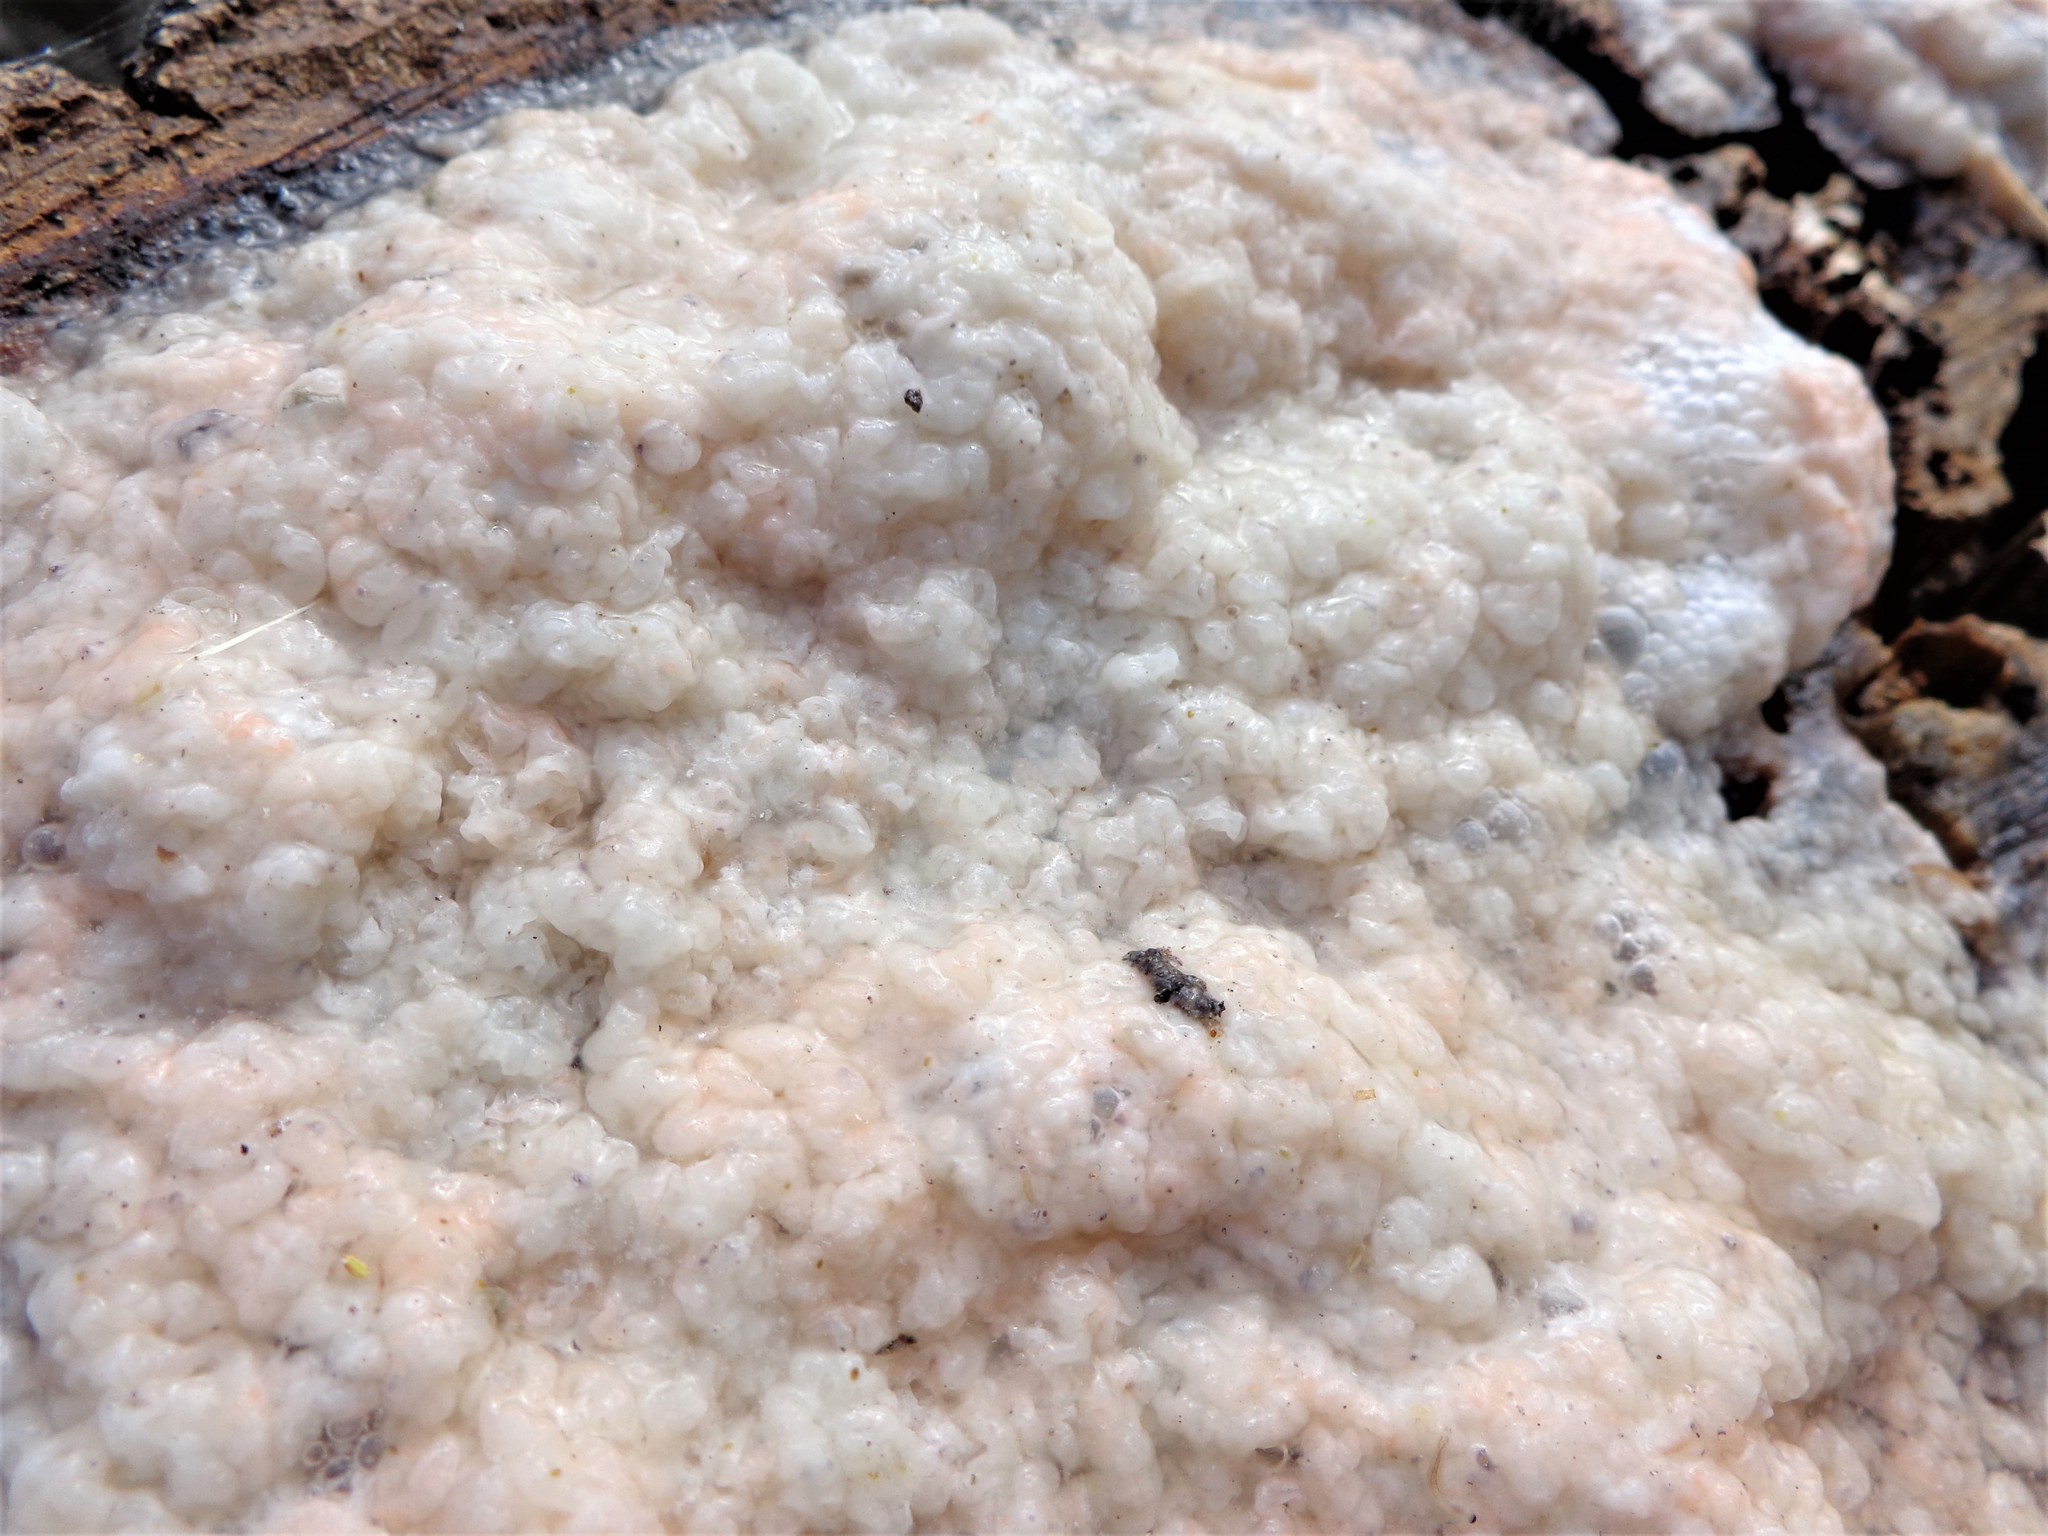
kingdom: Fungi
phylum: Ascomycota
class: Sordariomycetes
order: Hypocreales
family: Nectriaceae
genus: Fusicolla
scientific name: Fusicolla merismoides
